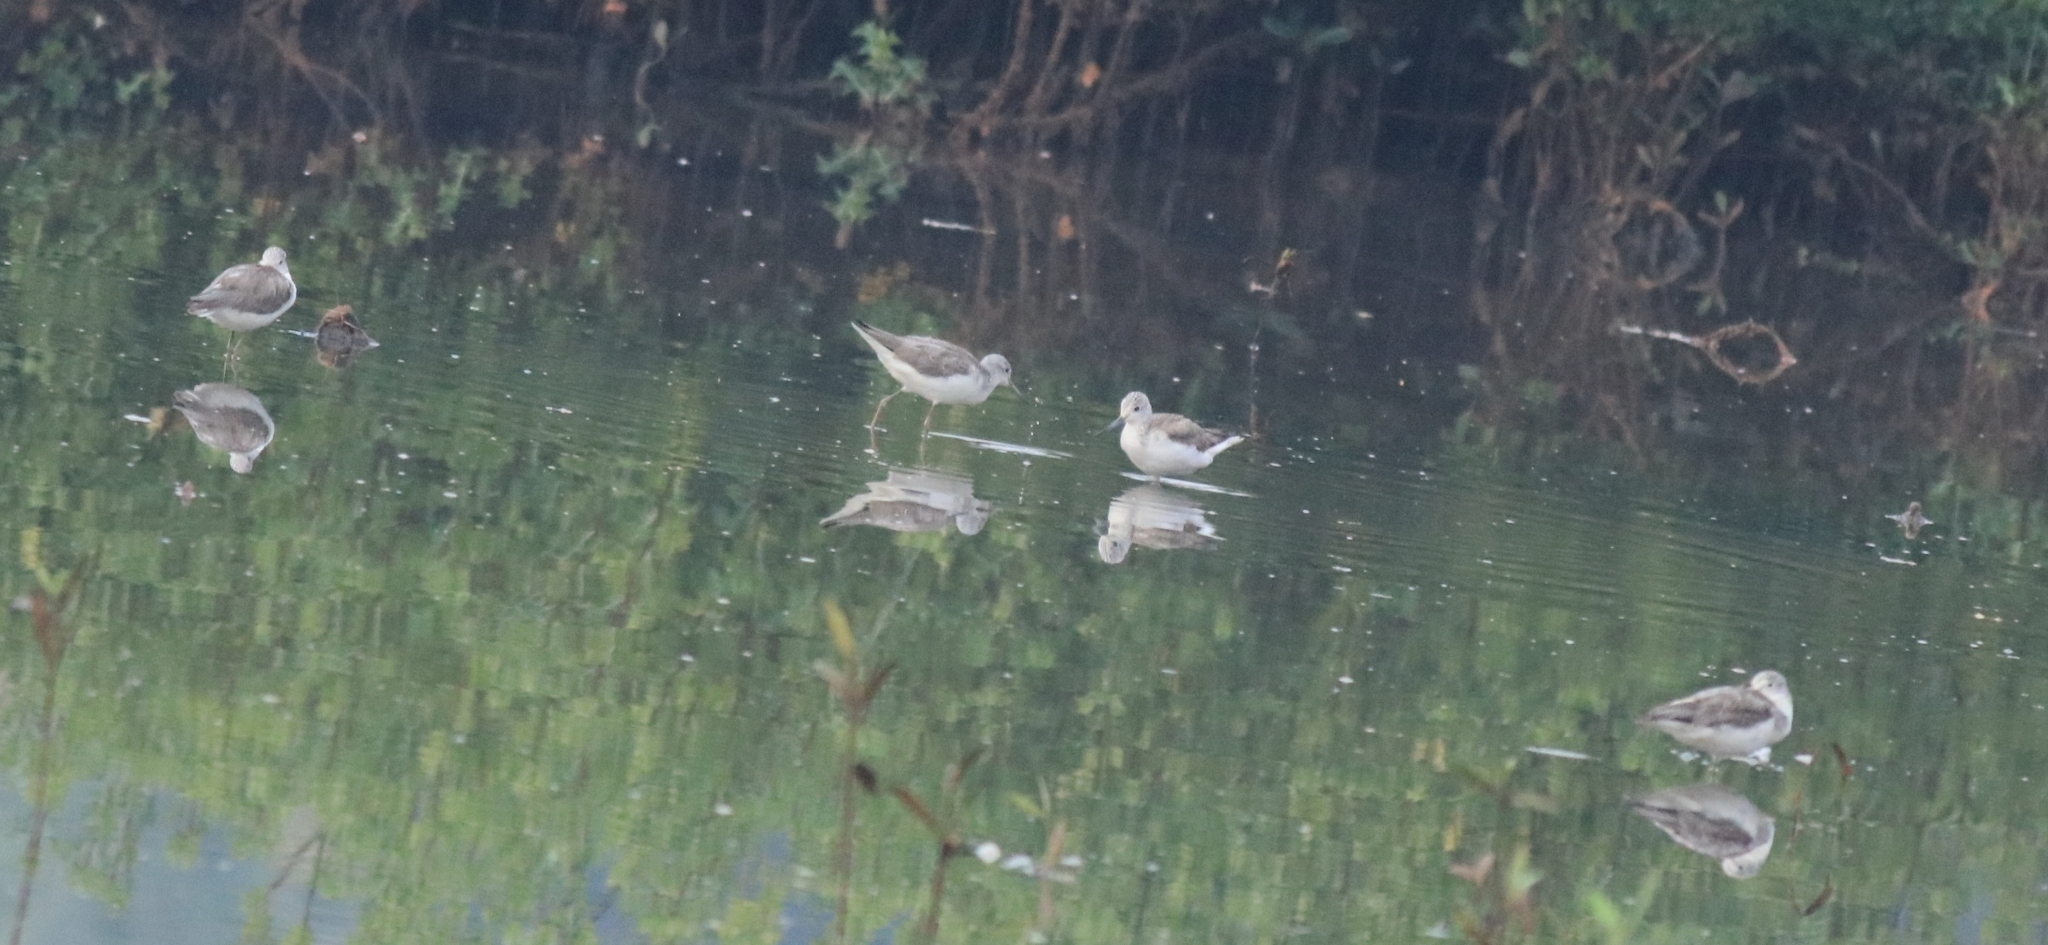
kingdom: Animalia
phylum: Chordata
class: Aves
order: Charadriiformes
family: Scolopacidae
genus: Tringa
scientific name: Tringa nebularia
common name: Common greenshank
